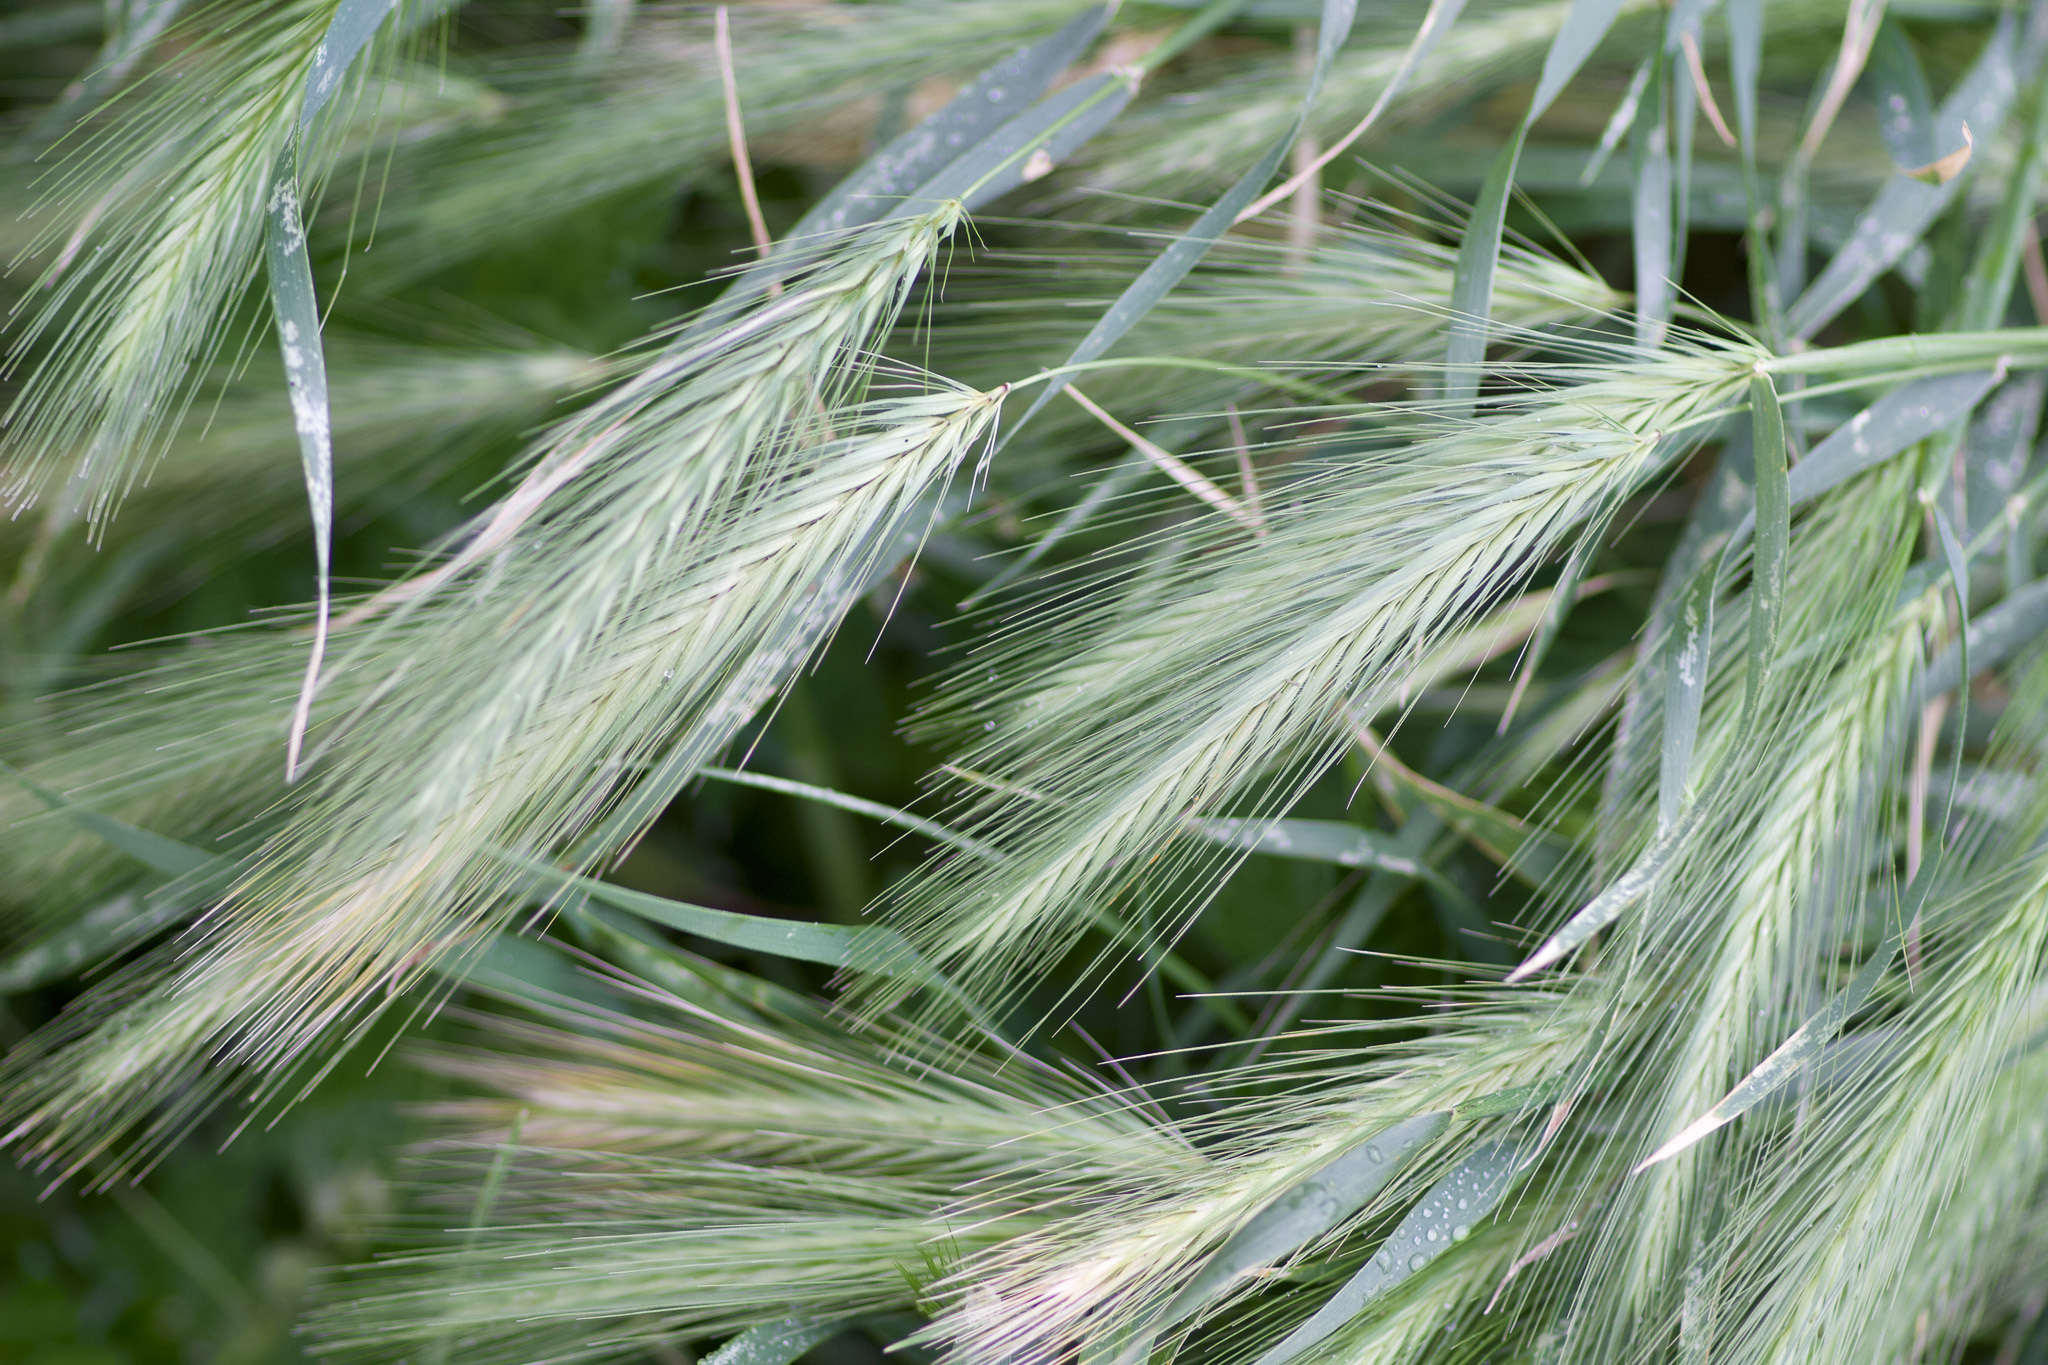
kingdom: Plantae
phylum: Tracheophyta
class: Liliopsida
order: Poales
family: Poaceae
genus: Hordeum
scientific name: Hordeum murinum
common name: Wall barley
